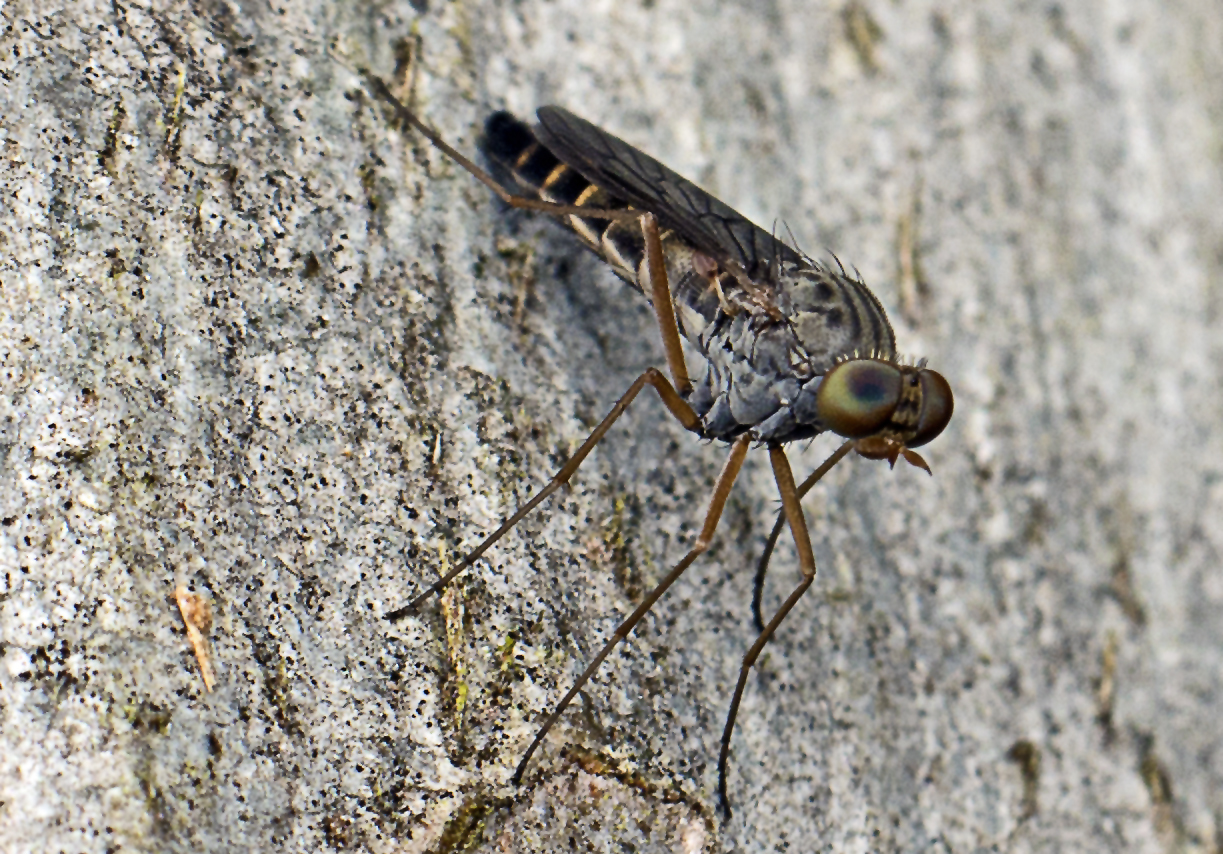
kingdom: Animalia
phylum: Arthropoda
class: Insecta
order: Diptera
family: Therevidae
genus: Nanexila
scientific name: Nanexila livea
